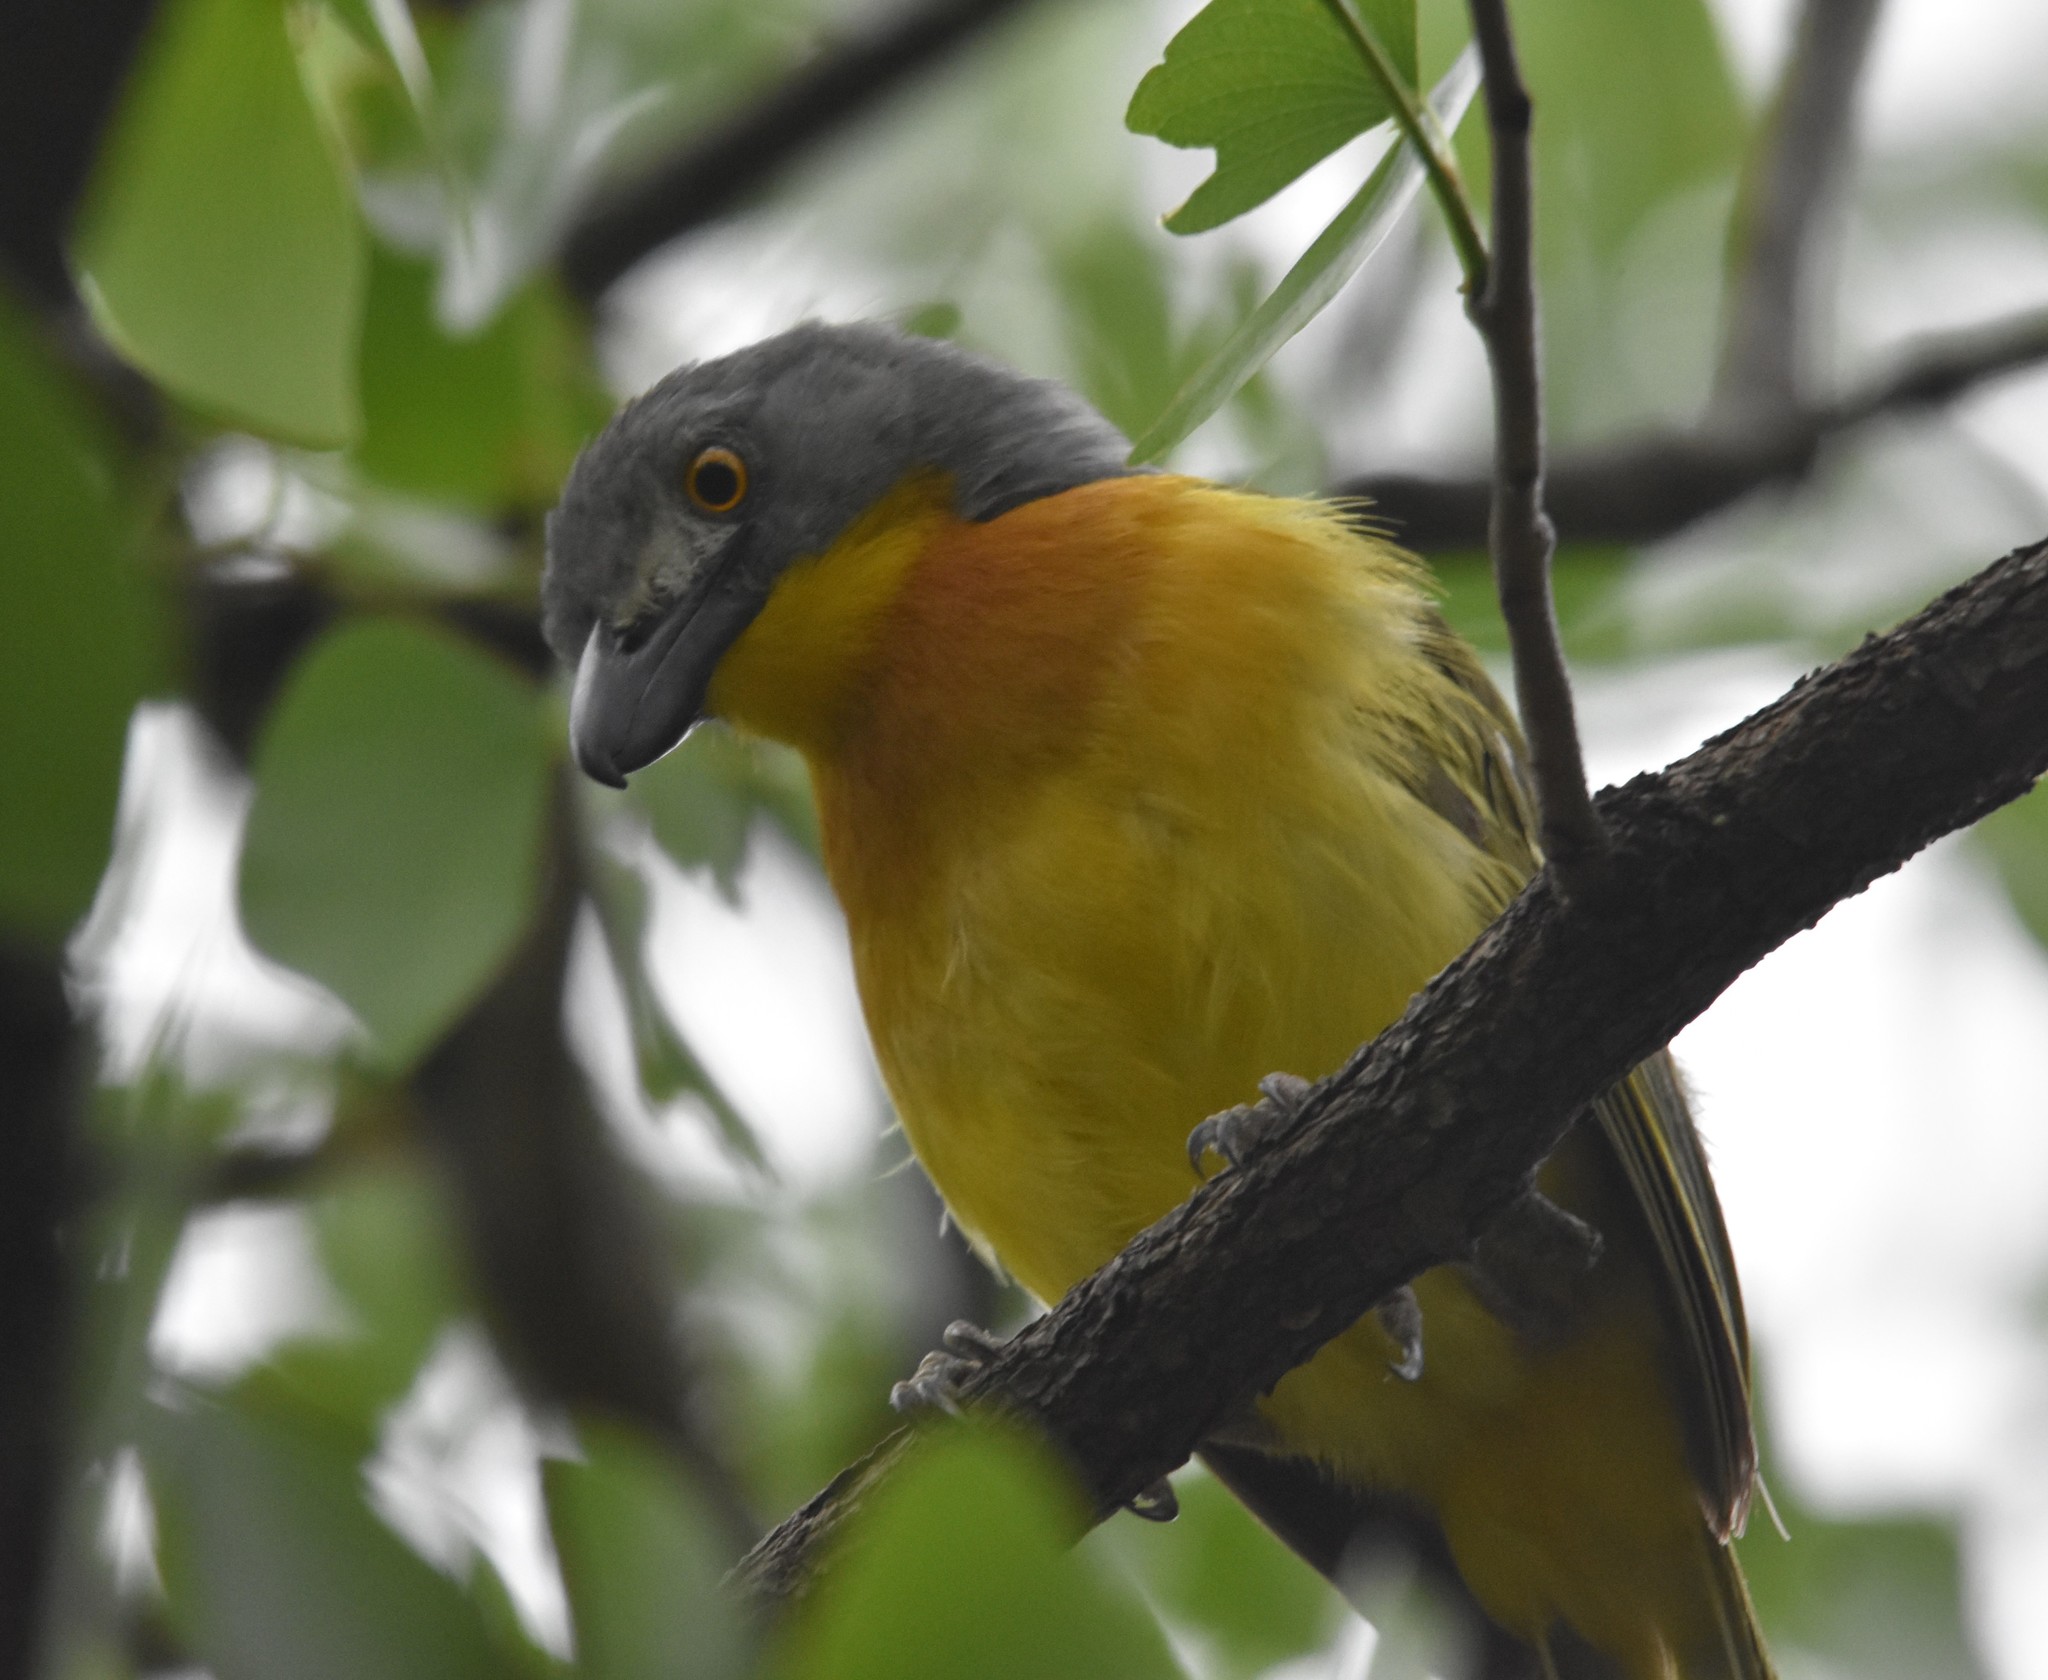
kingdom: Animalia
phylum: Chordata
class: Aves
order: Passeriformes
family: Malaconotidae
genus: Malaconotus
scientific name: Malaconotus blanchoti
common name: Grey-headed bushshrike
